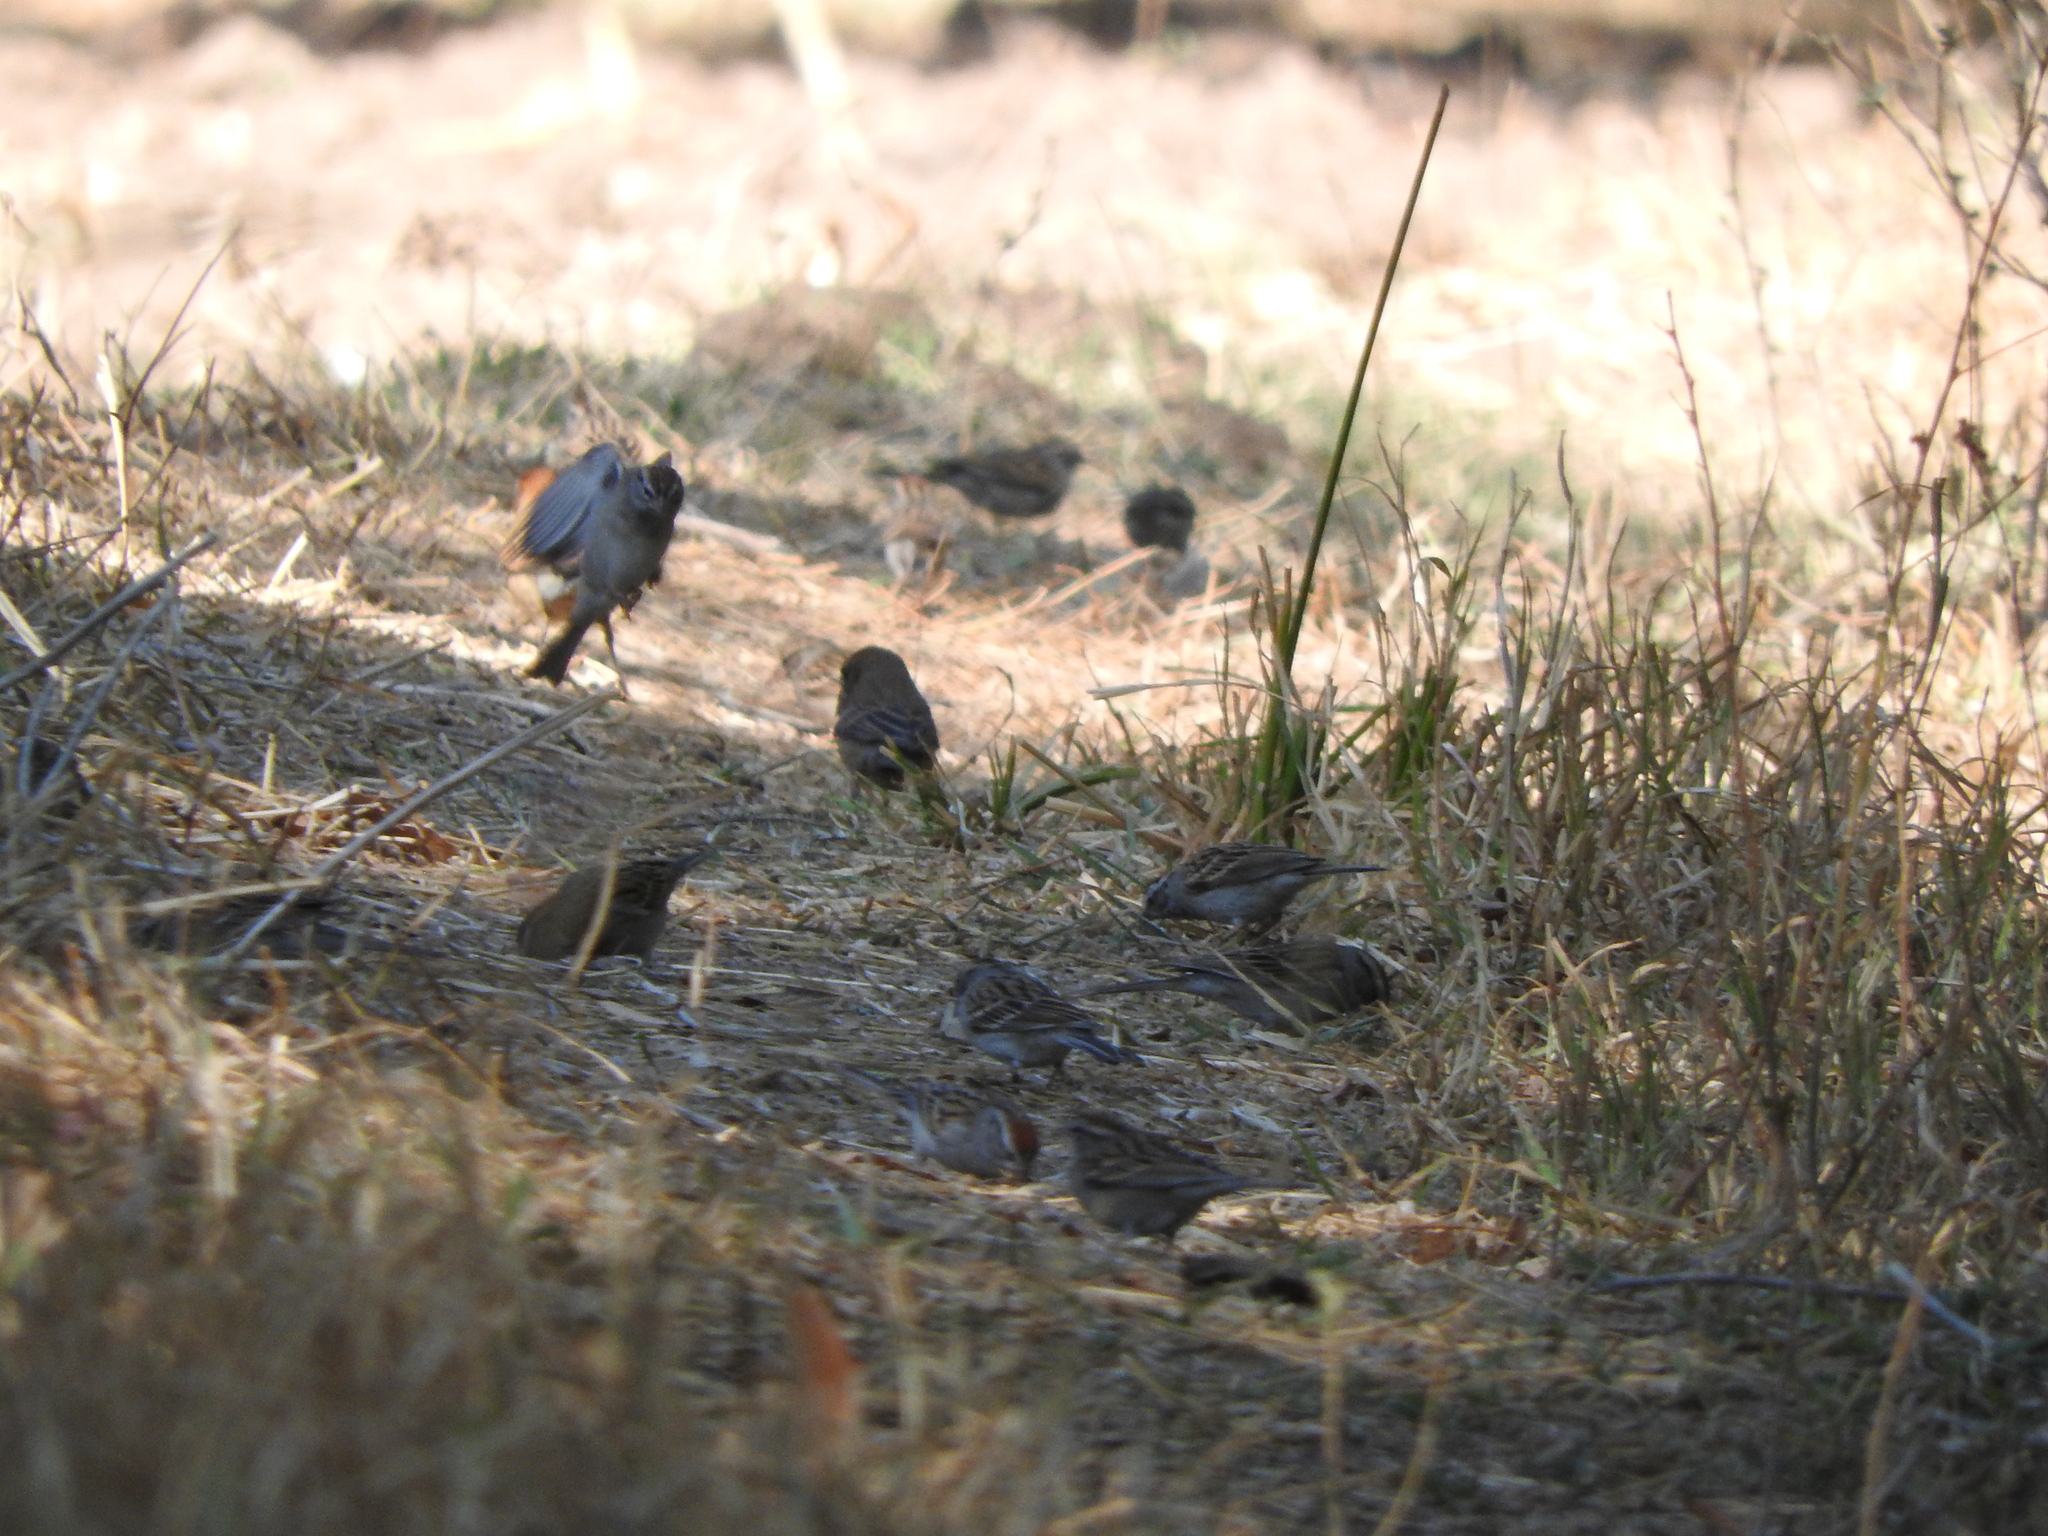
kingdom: Animalia
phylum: Chordata
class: Aves
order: Passeriformes
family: Cardinalidae
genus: Passerina
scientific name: Passerina caerulea
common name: Blue grosbeak
